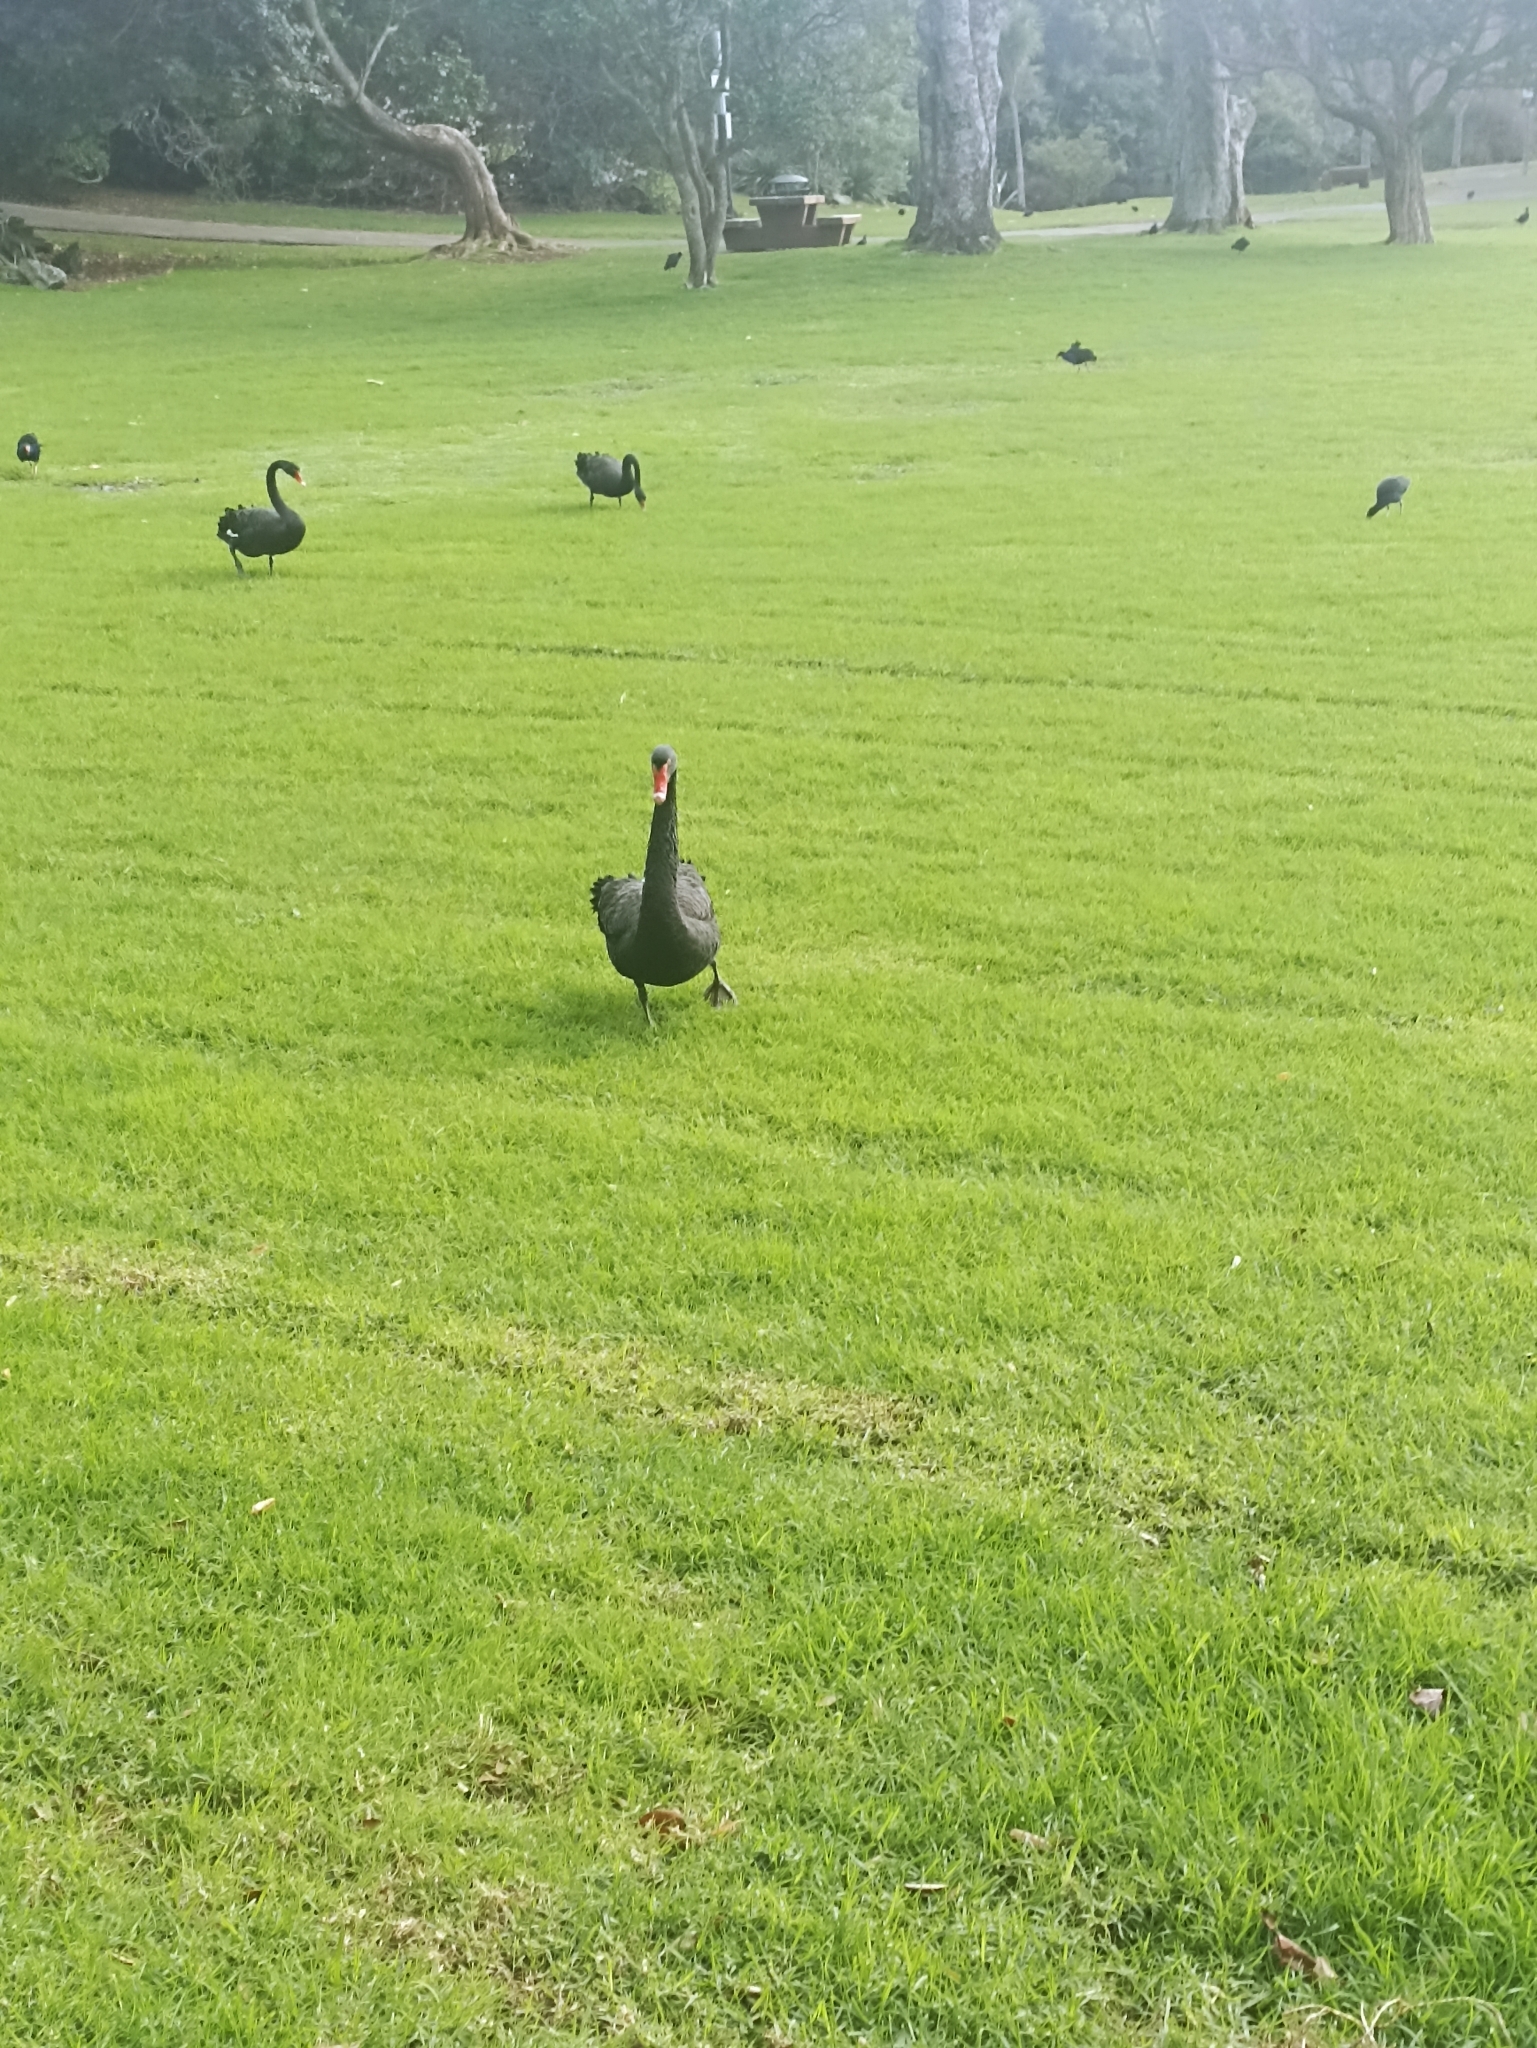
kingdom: Animalia
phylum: Chordata
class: Aves
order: Anseriformes
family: Anatidae
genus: Cygnus
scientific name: Cygnus atratus
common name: Black swan
